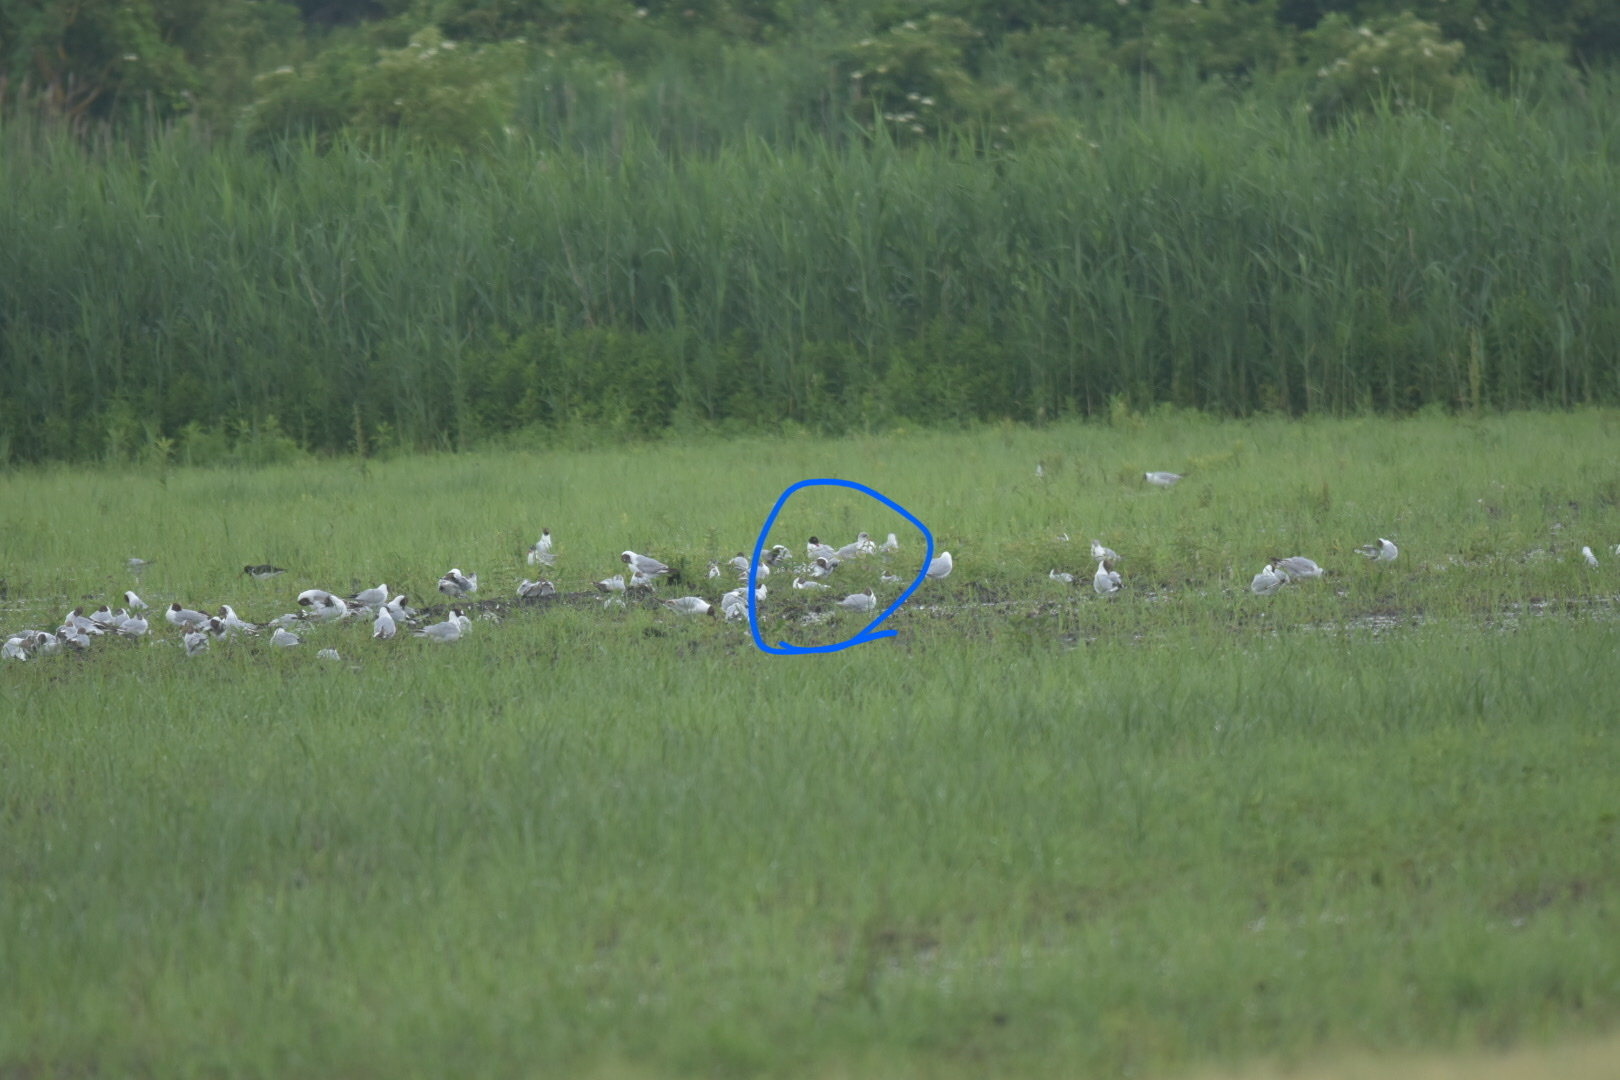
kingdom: Animalia
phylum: Chordata
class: Aves
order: Charadriiformes
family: Laridae
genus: Ichthyaetus
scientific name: Ichthyaetus melanocephalus
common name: Mediterranean gull
